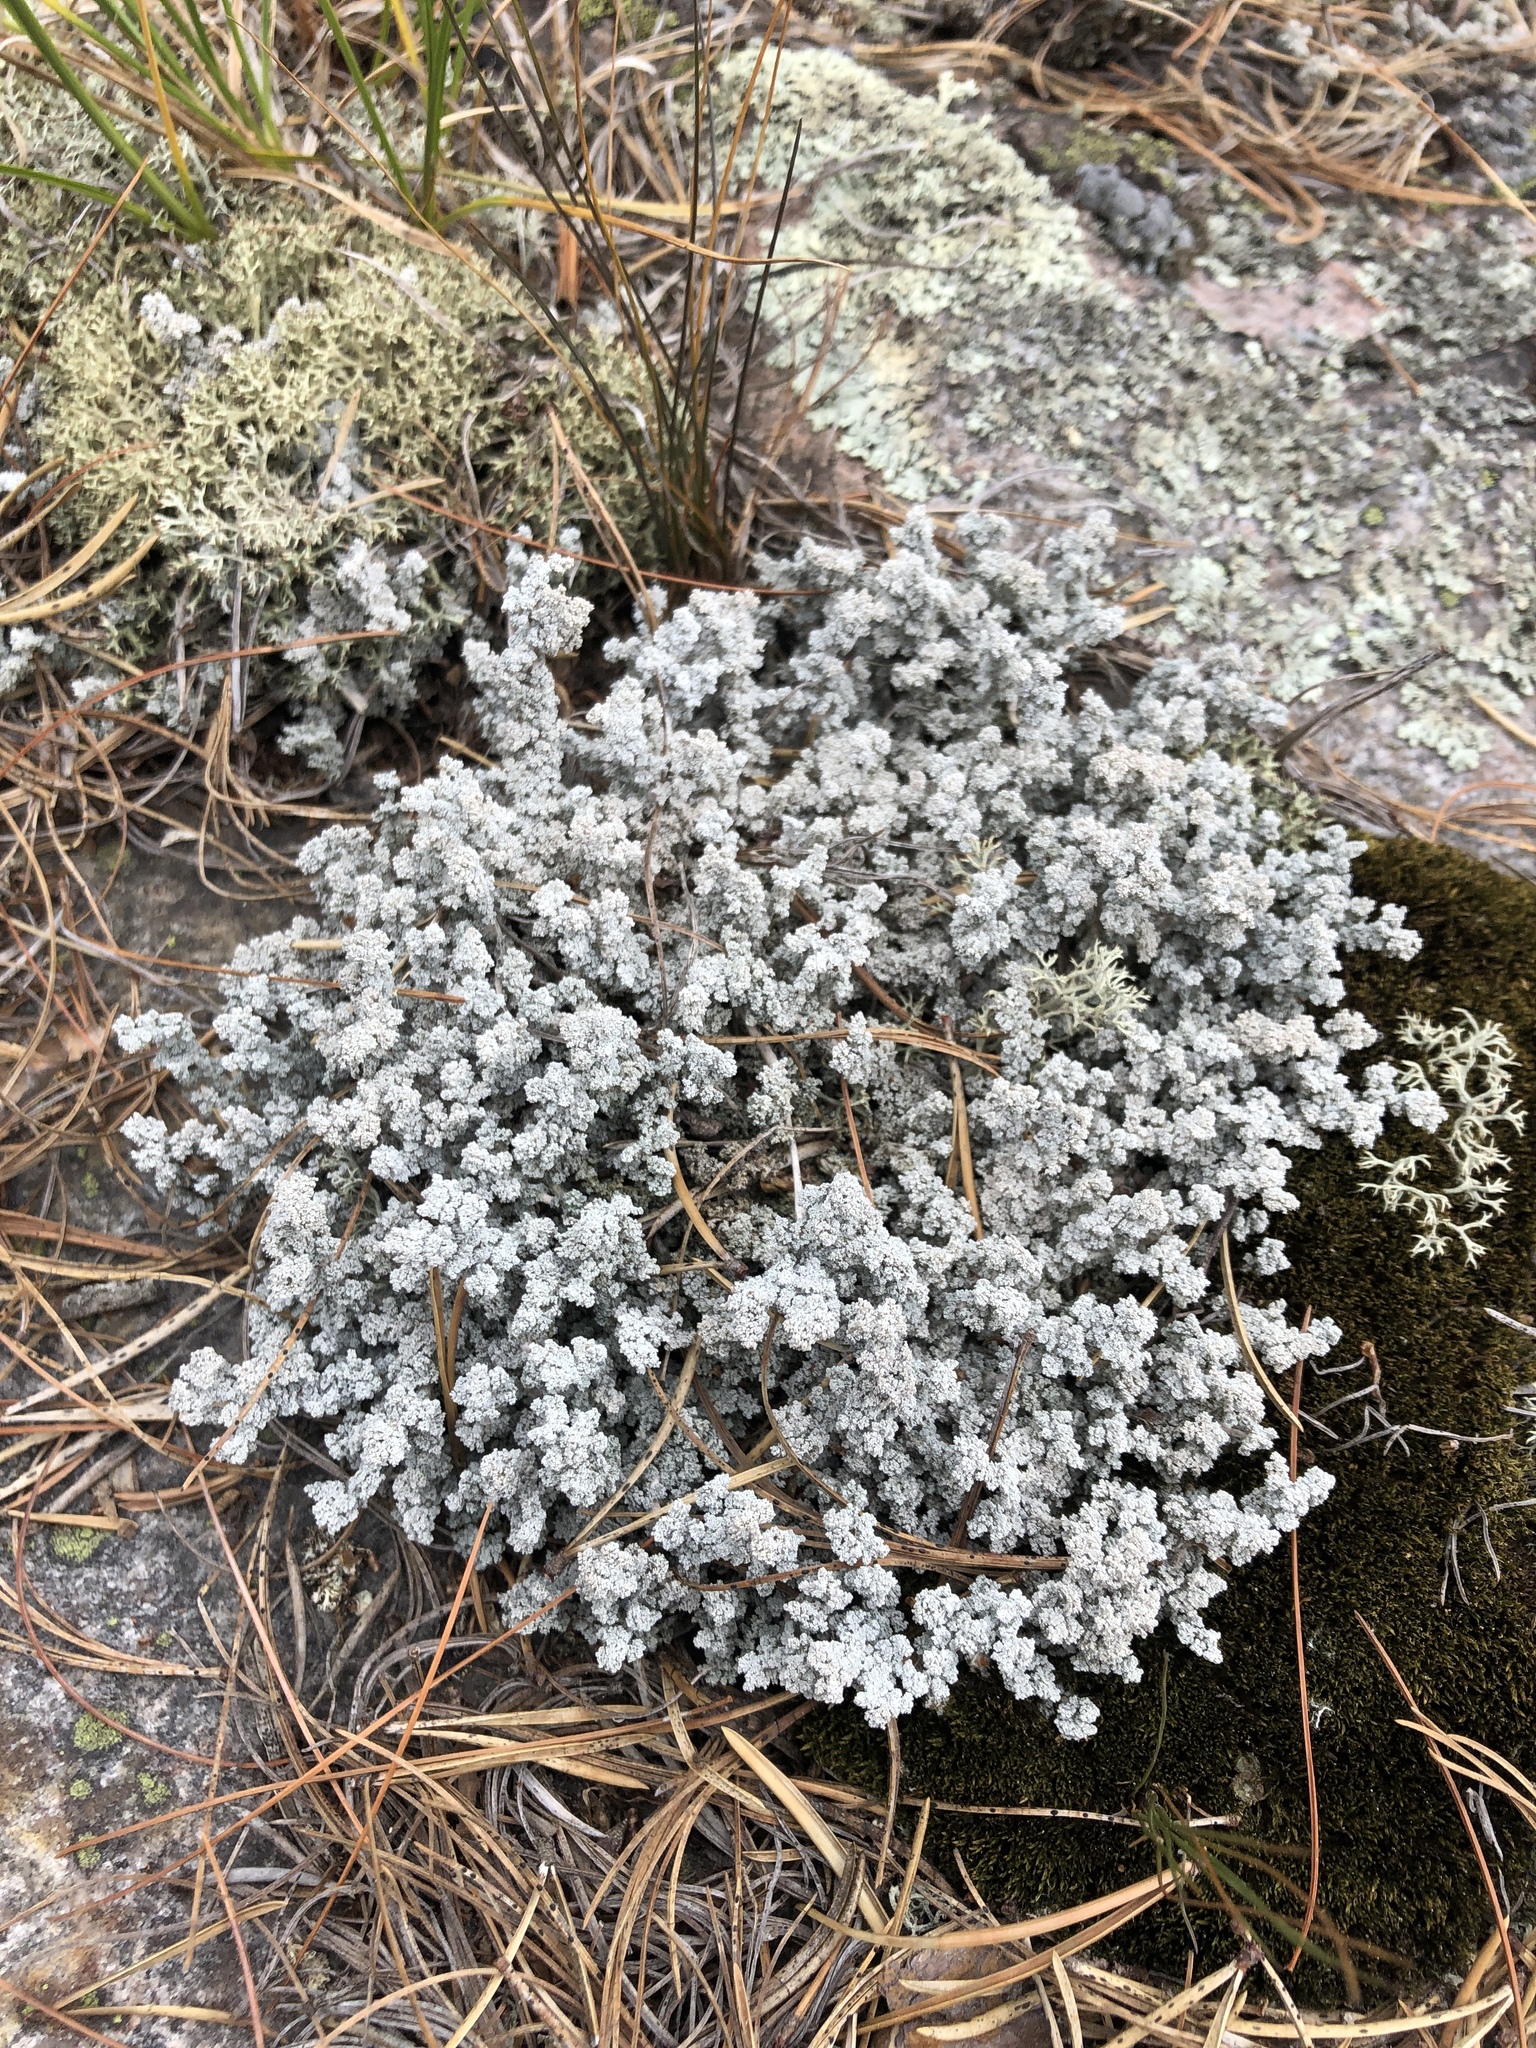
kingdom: Fungi
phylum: Ascomycota
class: Lecanoromycetes
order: Lecanorales
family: Stereocaulaceae
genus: Stereocaulon
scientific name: Stereocaulon tomentosum
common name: Woolly foam
